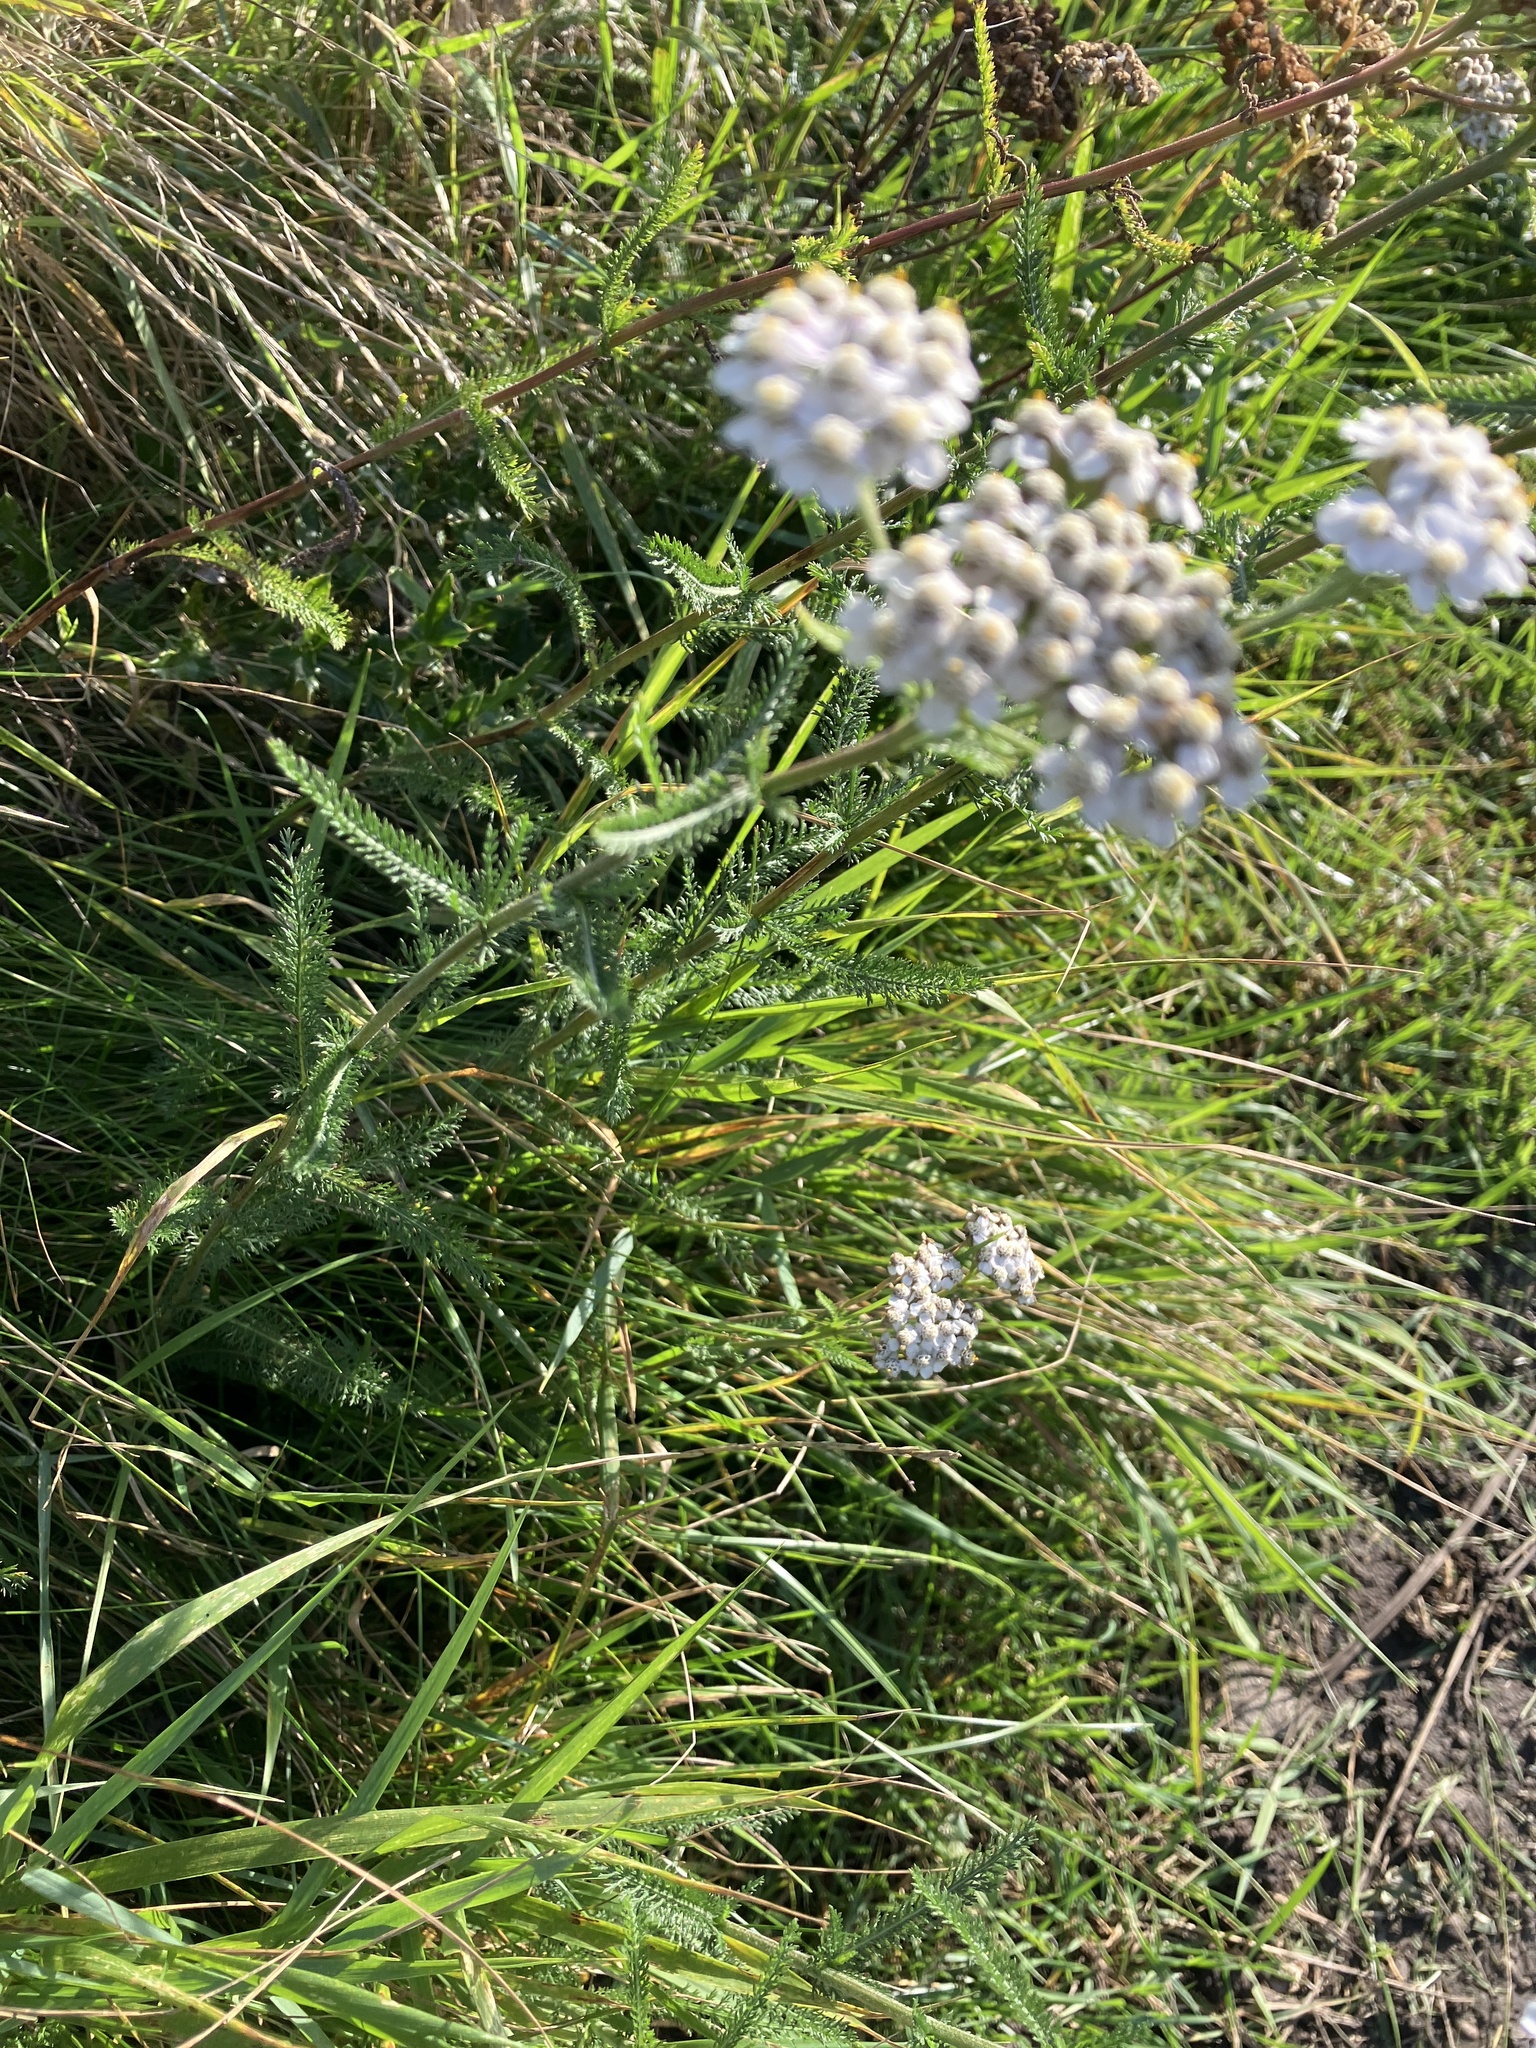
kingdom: Plantae
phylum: Tracheophyta
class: Magnoliopsida
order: Asterales
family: Asteraceae
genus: Achillea
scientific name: Achillea millefolium
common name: Yarrow
